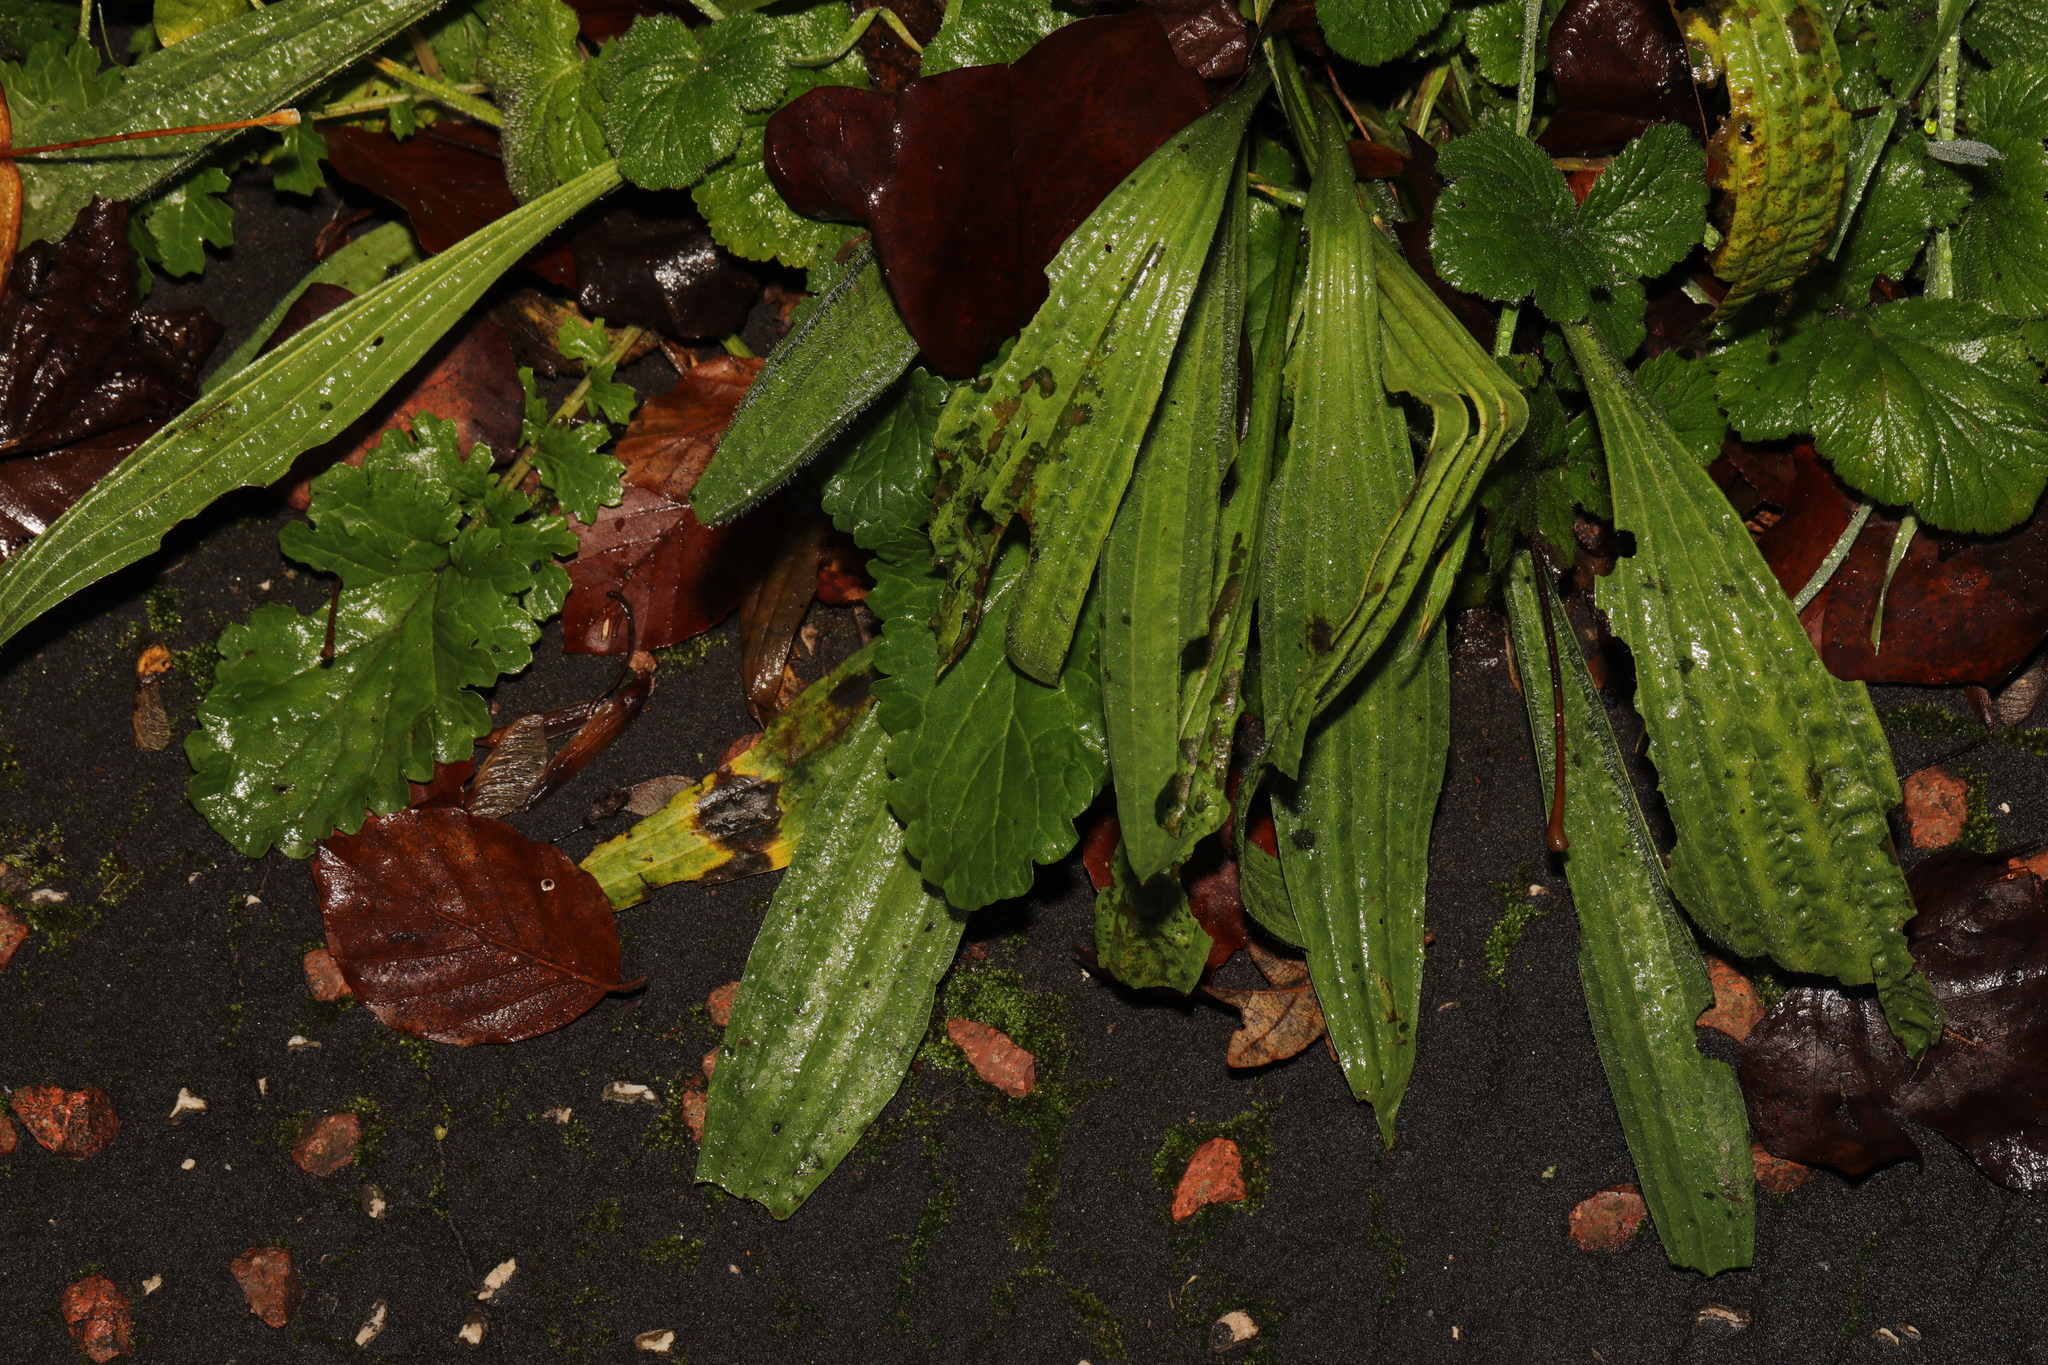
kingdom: Plantae
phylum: Tracheophyta
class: Magnoliopsida
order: Lamiales
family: Plantaginaceae
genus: Plantago
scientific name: Plantago lanceolata
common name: Ribwort plantain
